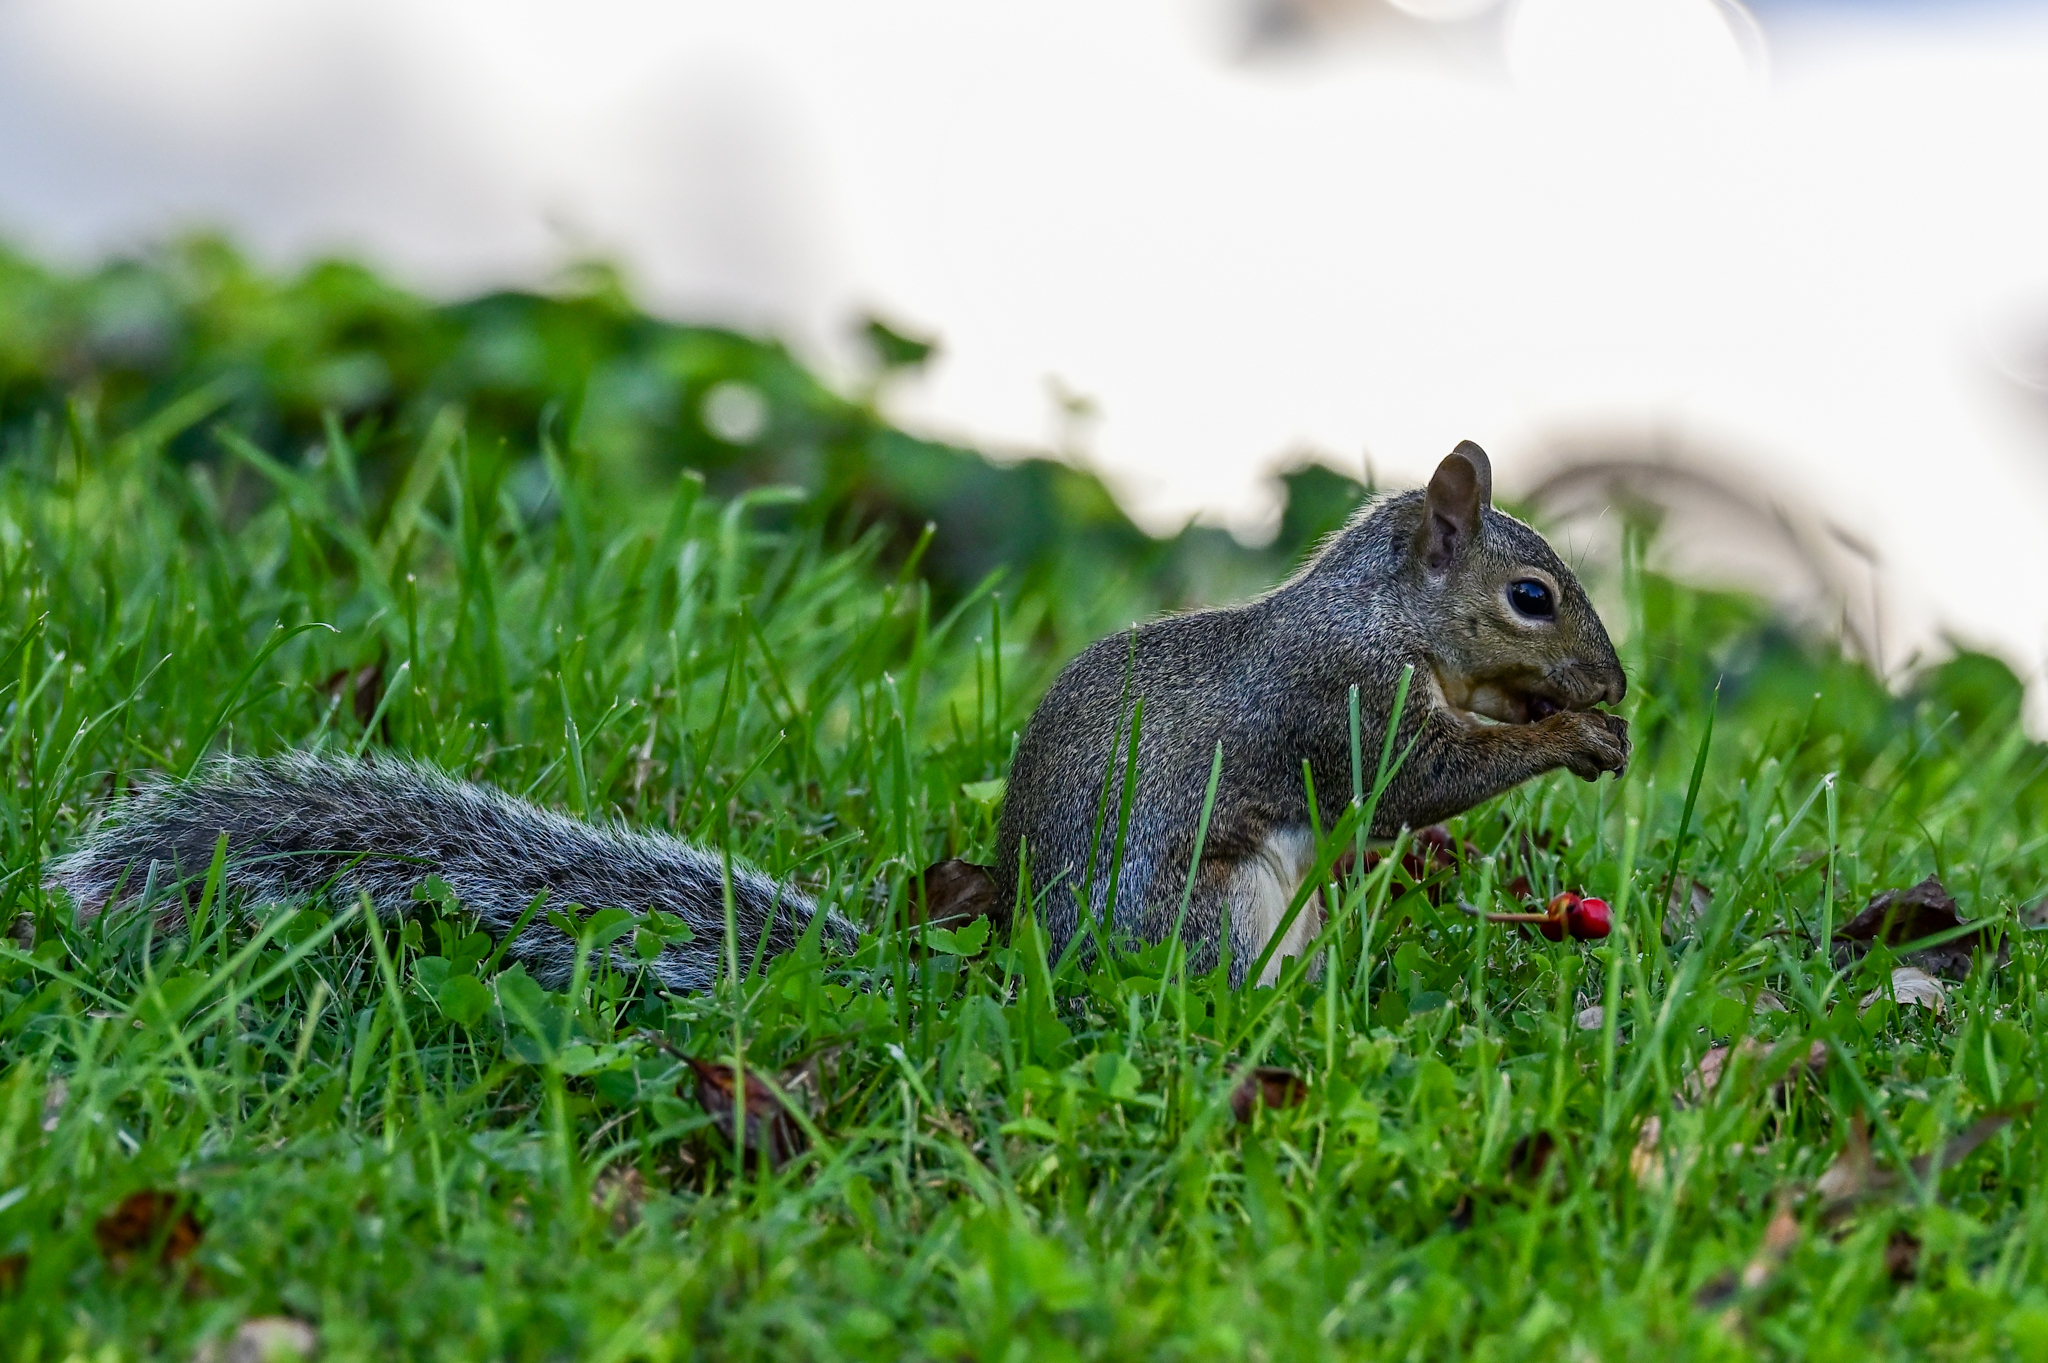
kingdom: Animalia
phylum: Chordata
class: Mammalia
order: Rodentia
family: Sciuridae
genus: Sciurus
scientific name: Sciurus carolinensis
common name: Eastern gray squirrel
